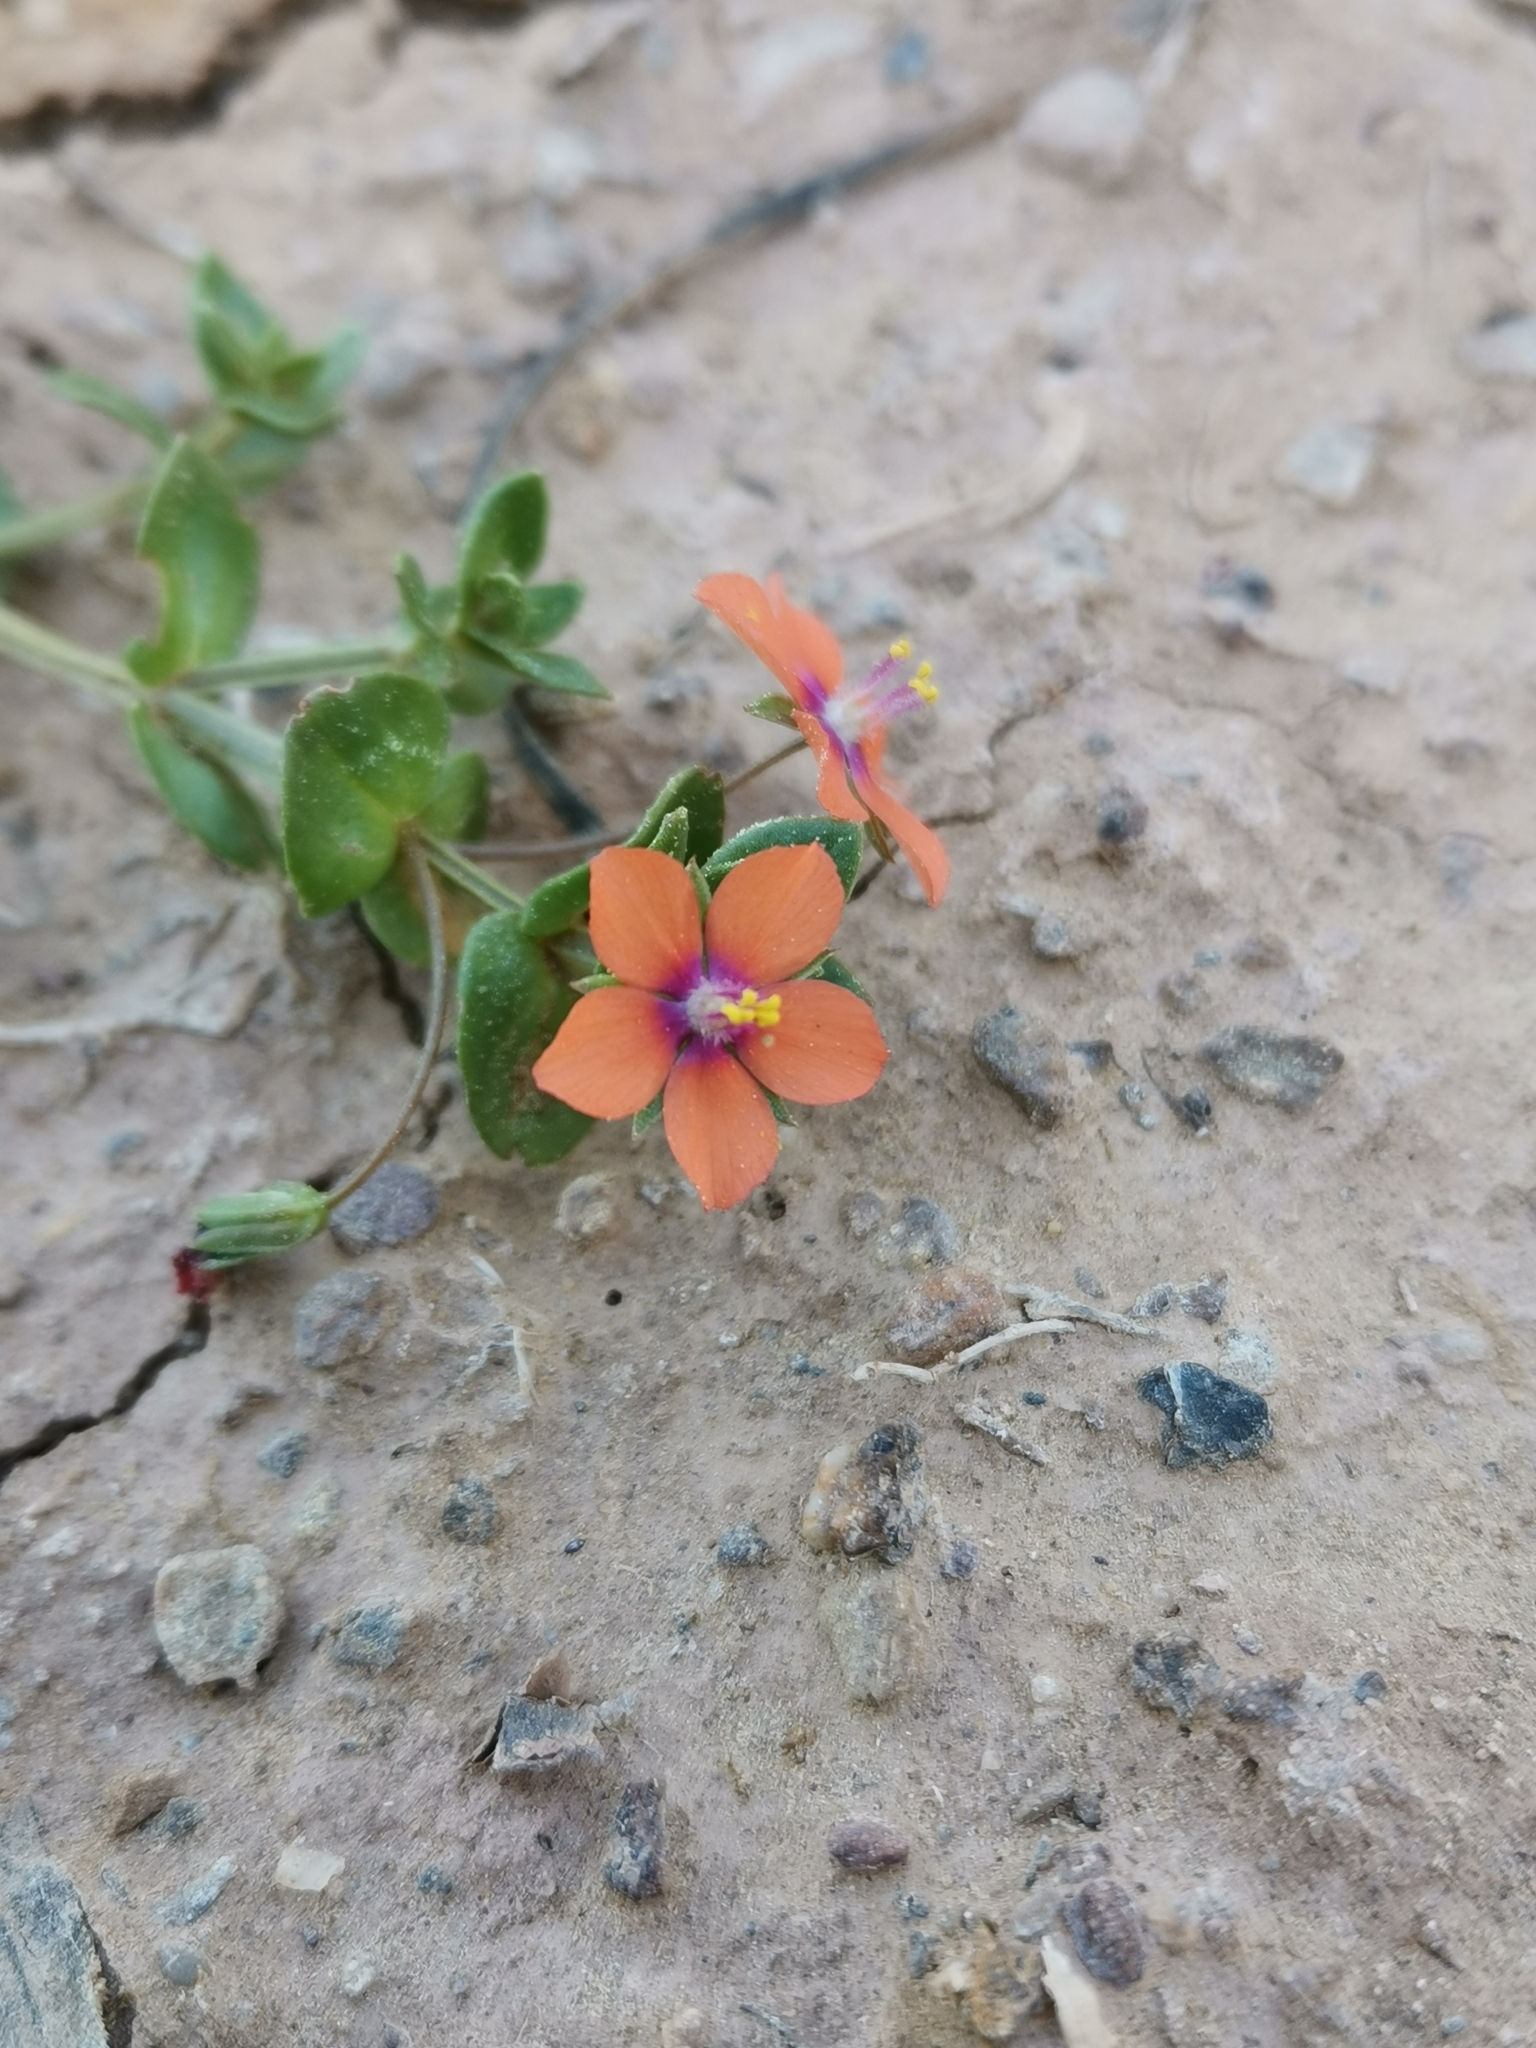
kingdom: Plantae
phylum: Tracheophyta
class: Magnoliopsida
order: Ericales
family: Primulaceae
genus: Lysimachia
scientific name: Lysimachia arvensis
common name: Scarlet pimpernel
